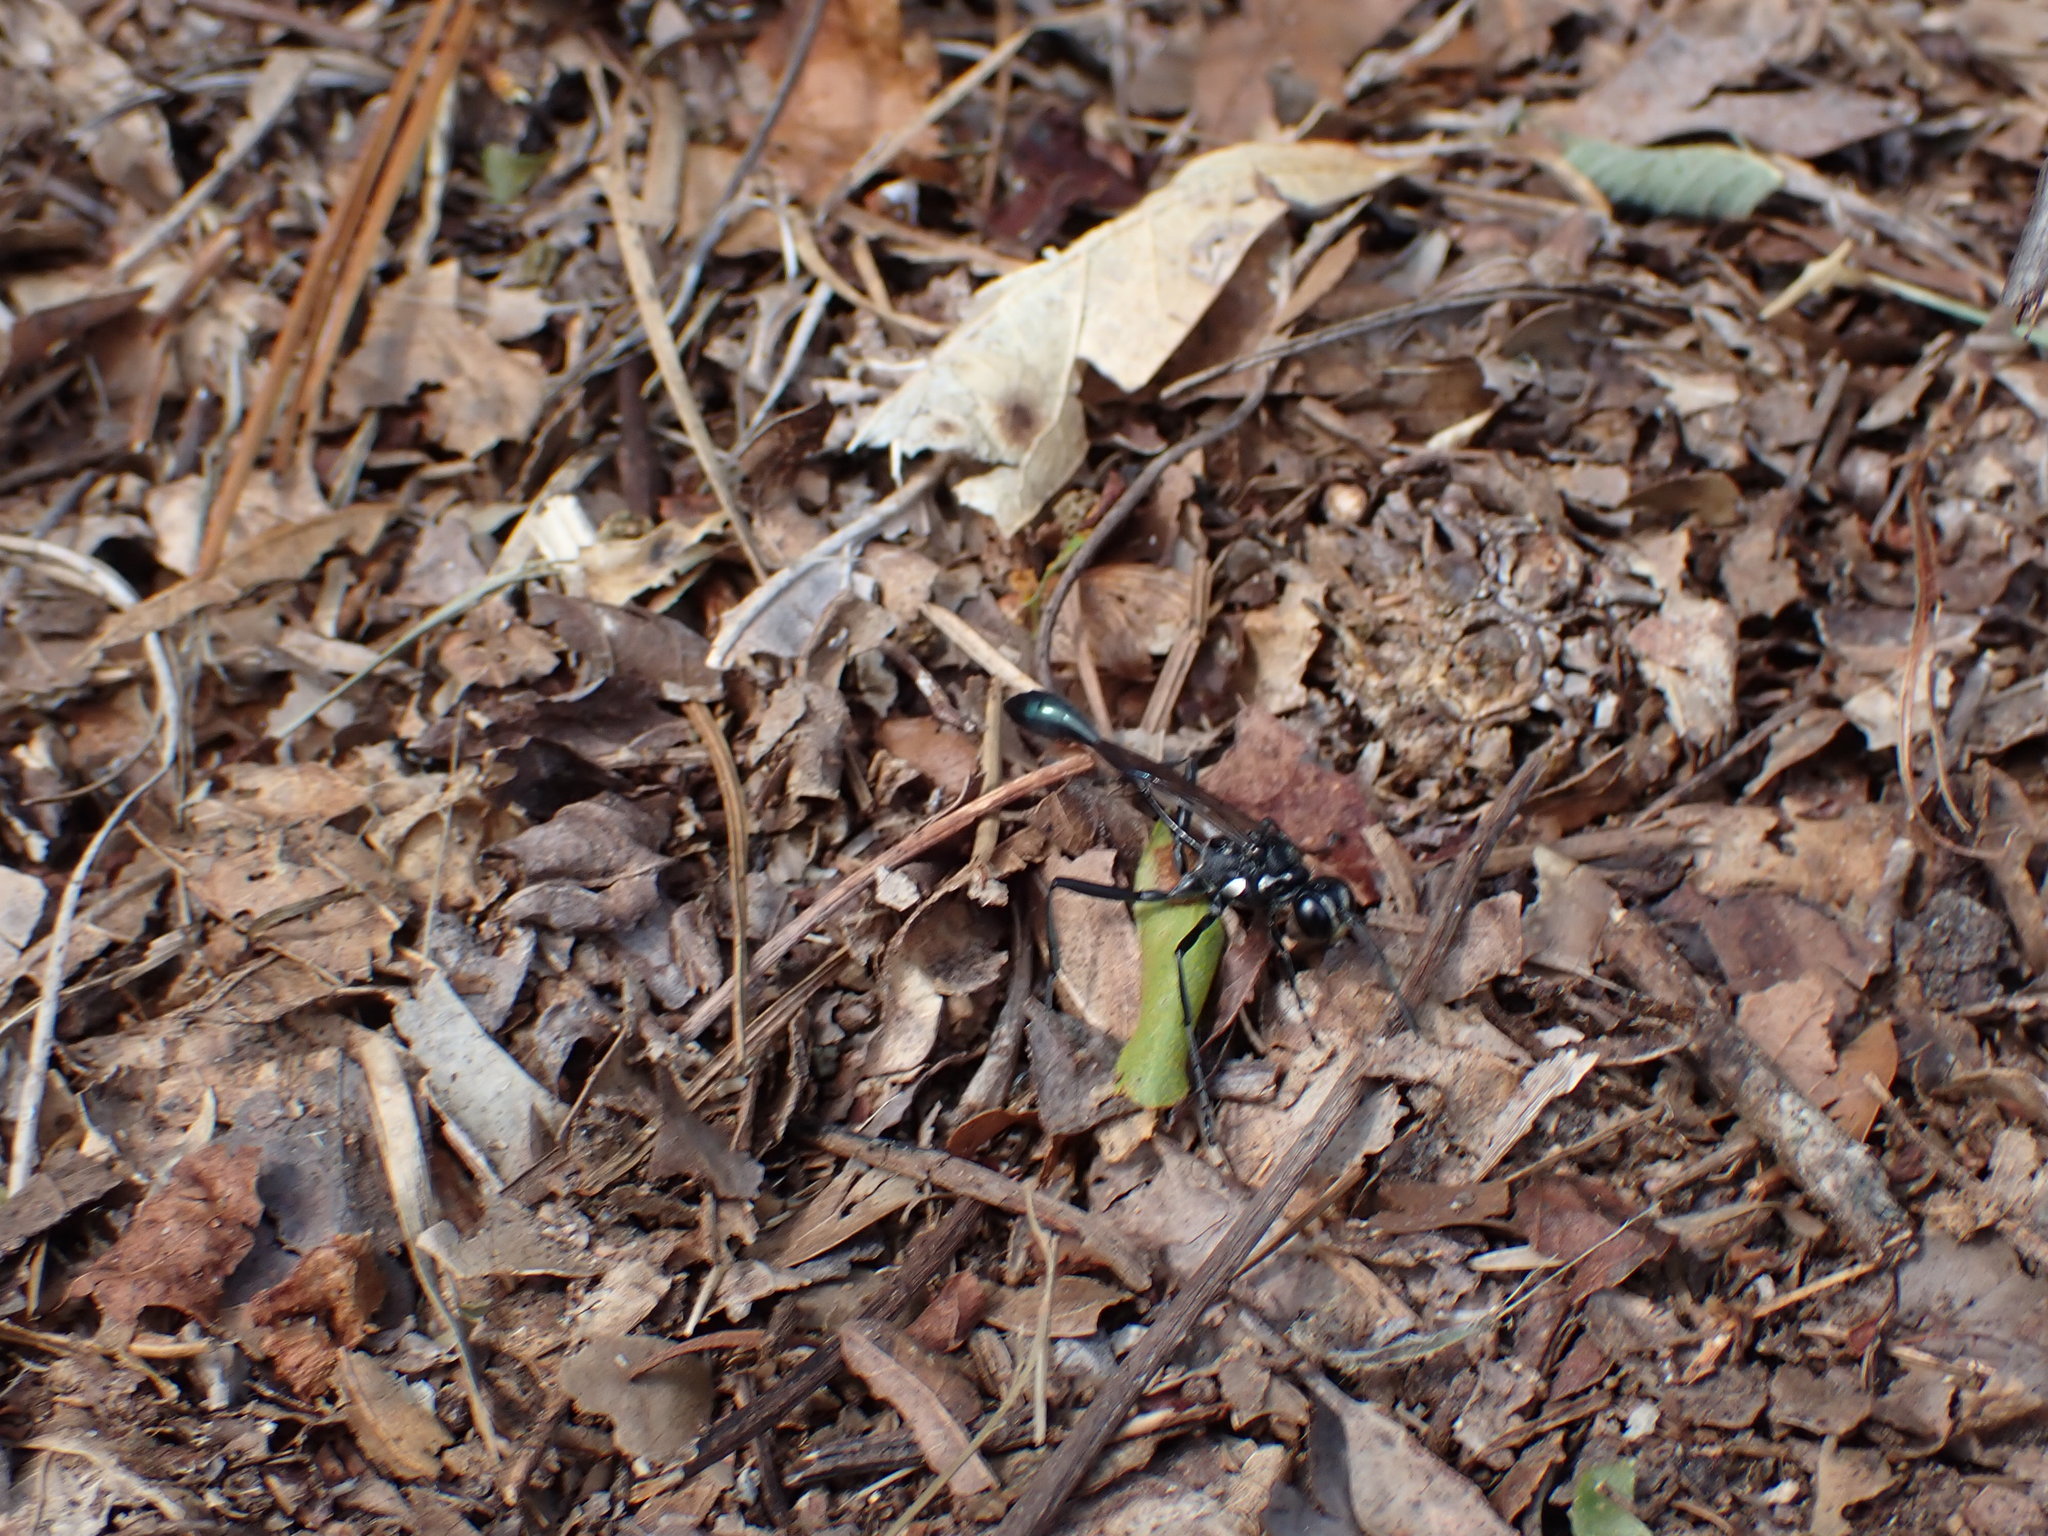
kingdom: Animalia
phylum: Arthropoda
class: Insecta
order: Hymenoptera
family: Sphecidae
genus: Eremnophila
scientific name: Eremnophila aureonotata
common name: Gold-marked thread-waisted wasp
